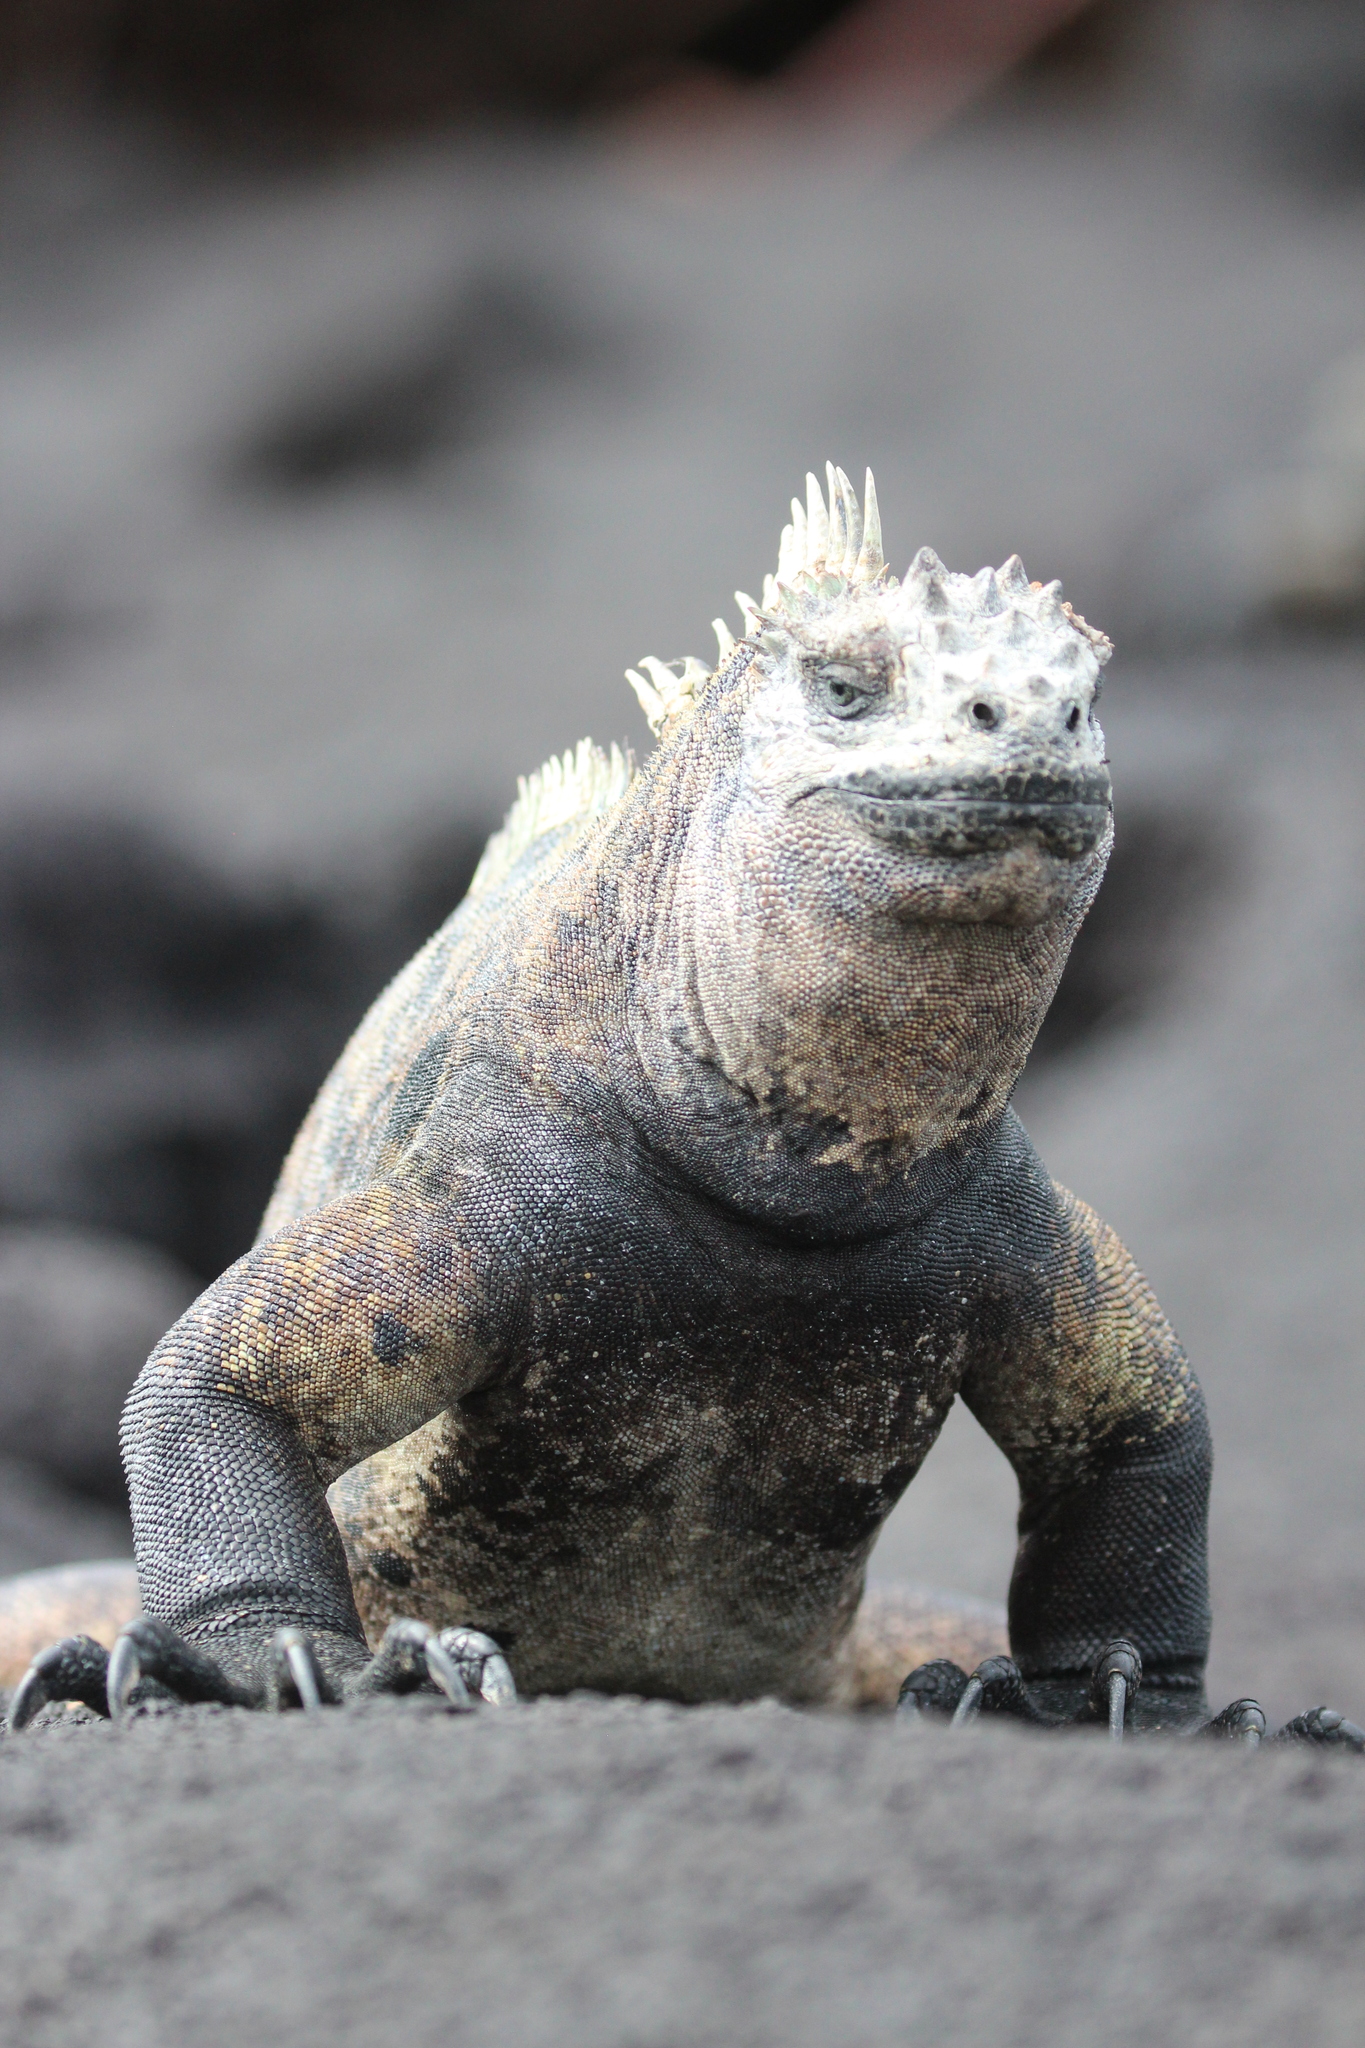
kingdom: Animalia
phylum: Chordata
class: Squamata
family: Iguanidae
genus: Amblyrhynchus
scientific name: Amblyrhynchus cristatus
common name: Marine iguana
